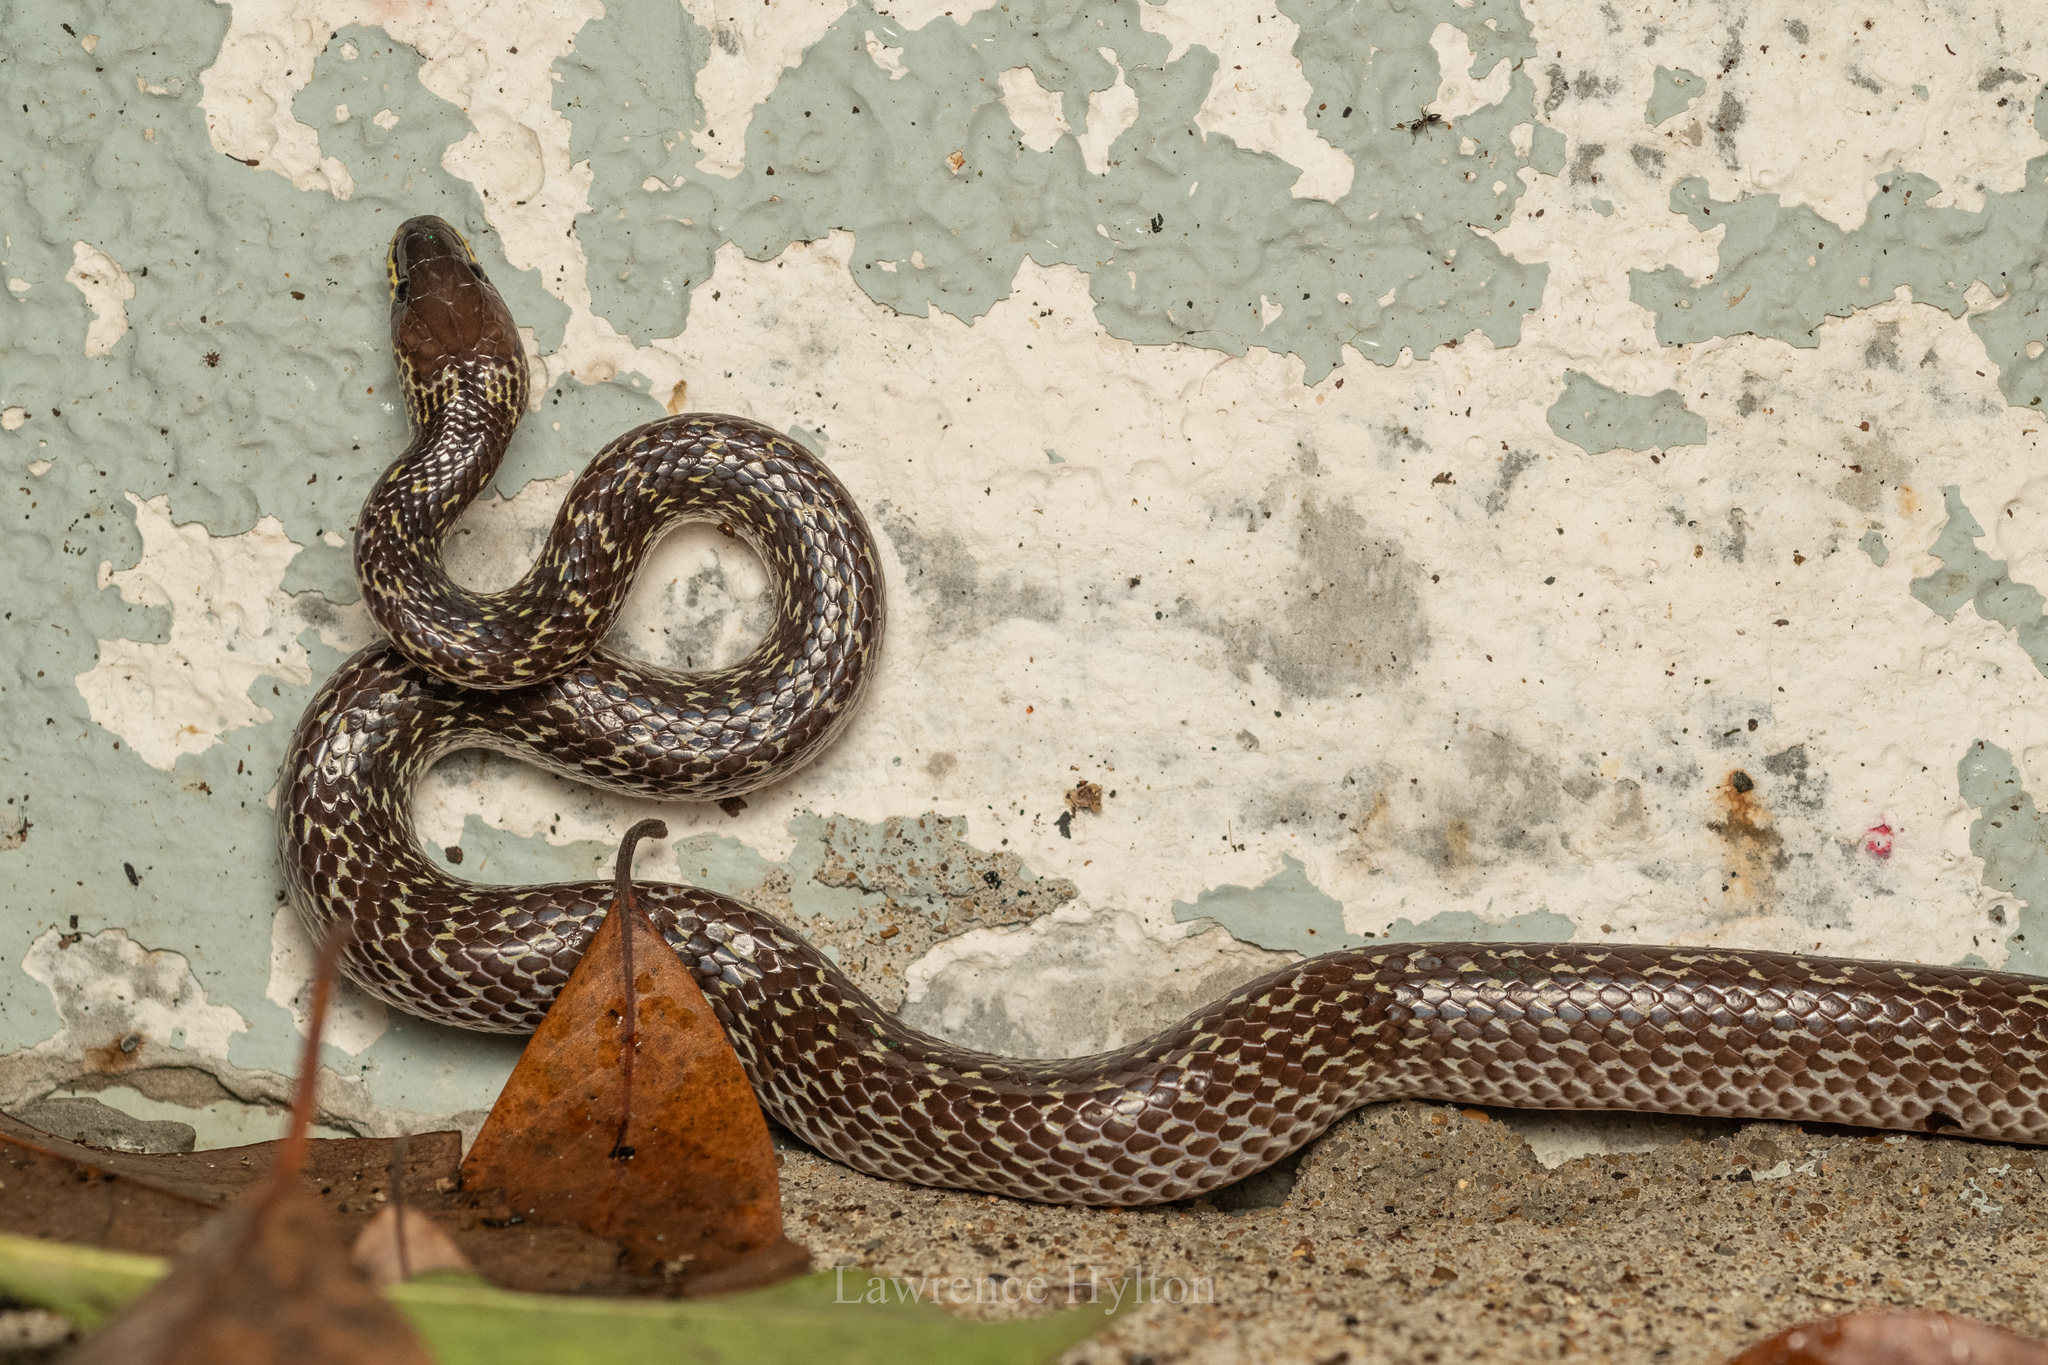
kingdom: Animalia
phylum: Chordata
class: Squamata
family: Colubridae
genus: Lycodon
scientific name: Lycodon capucinus
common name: Common wold snake/house snake
